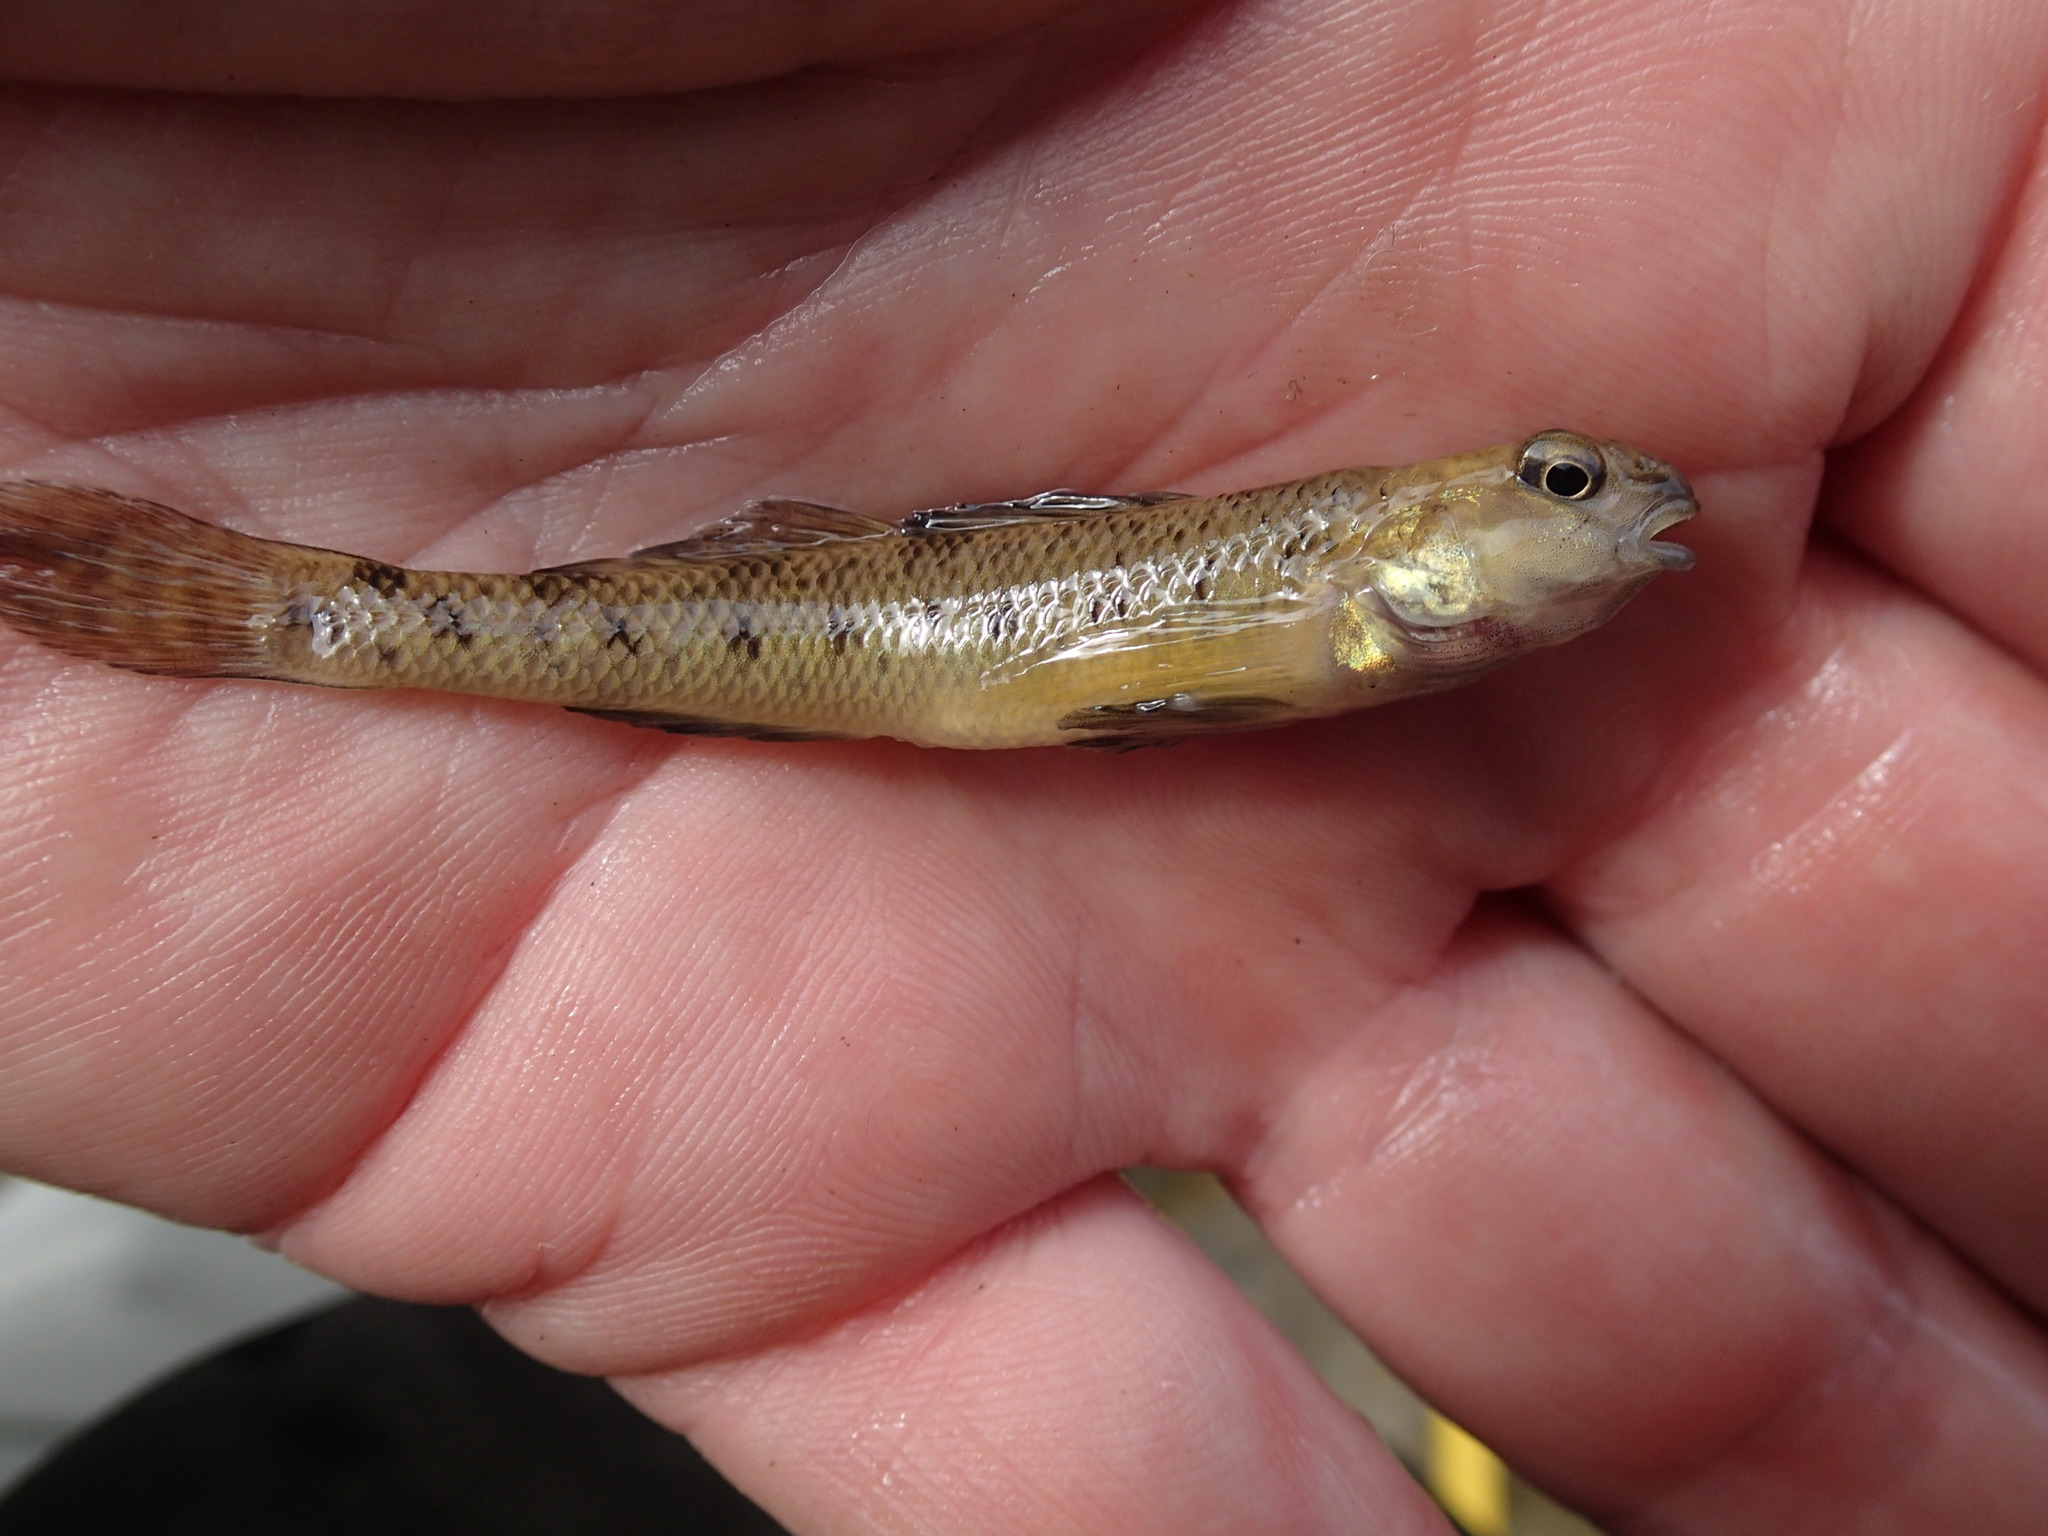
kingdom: Animalia
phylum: Chordata
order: Perciformes
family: Percidae
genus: Etheostoma
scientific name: Etheostoma nigrum
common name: Johnny darter
